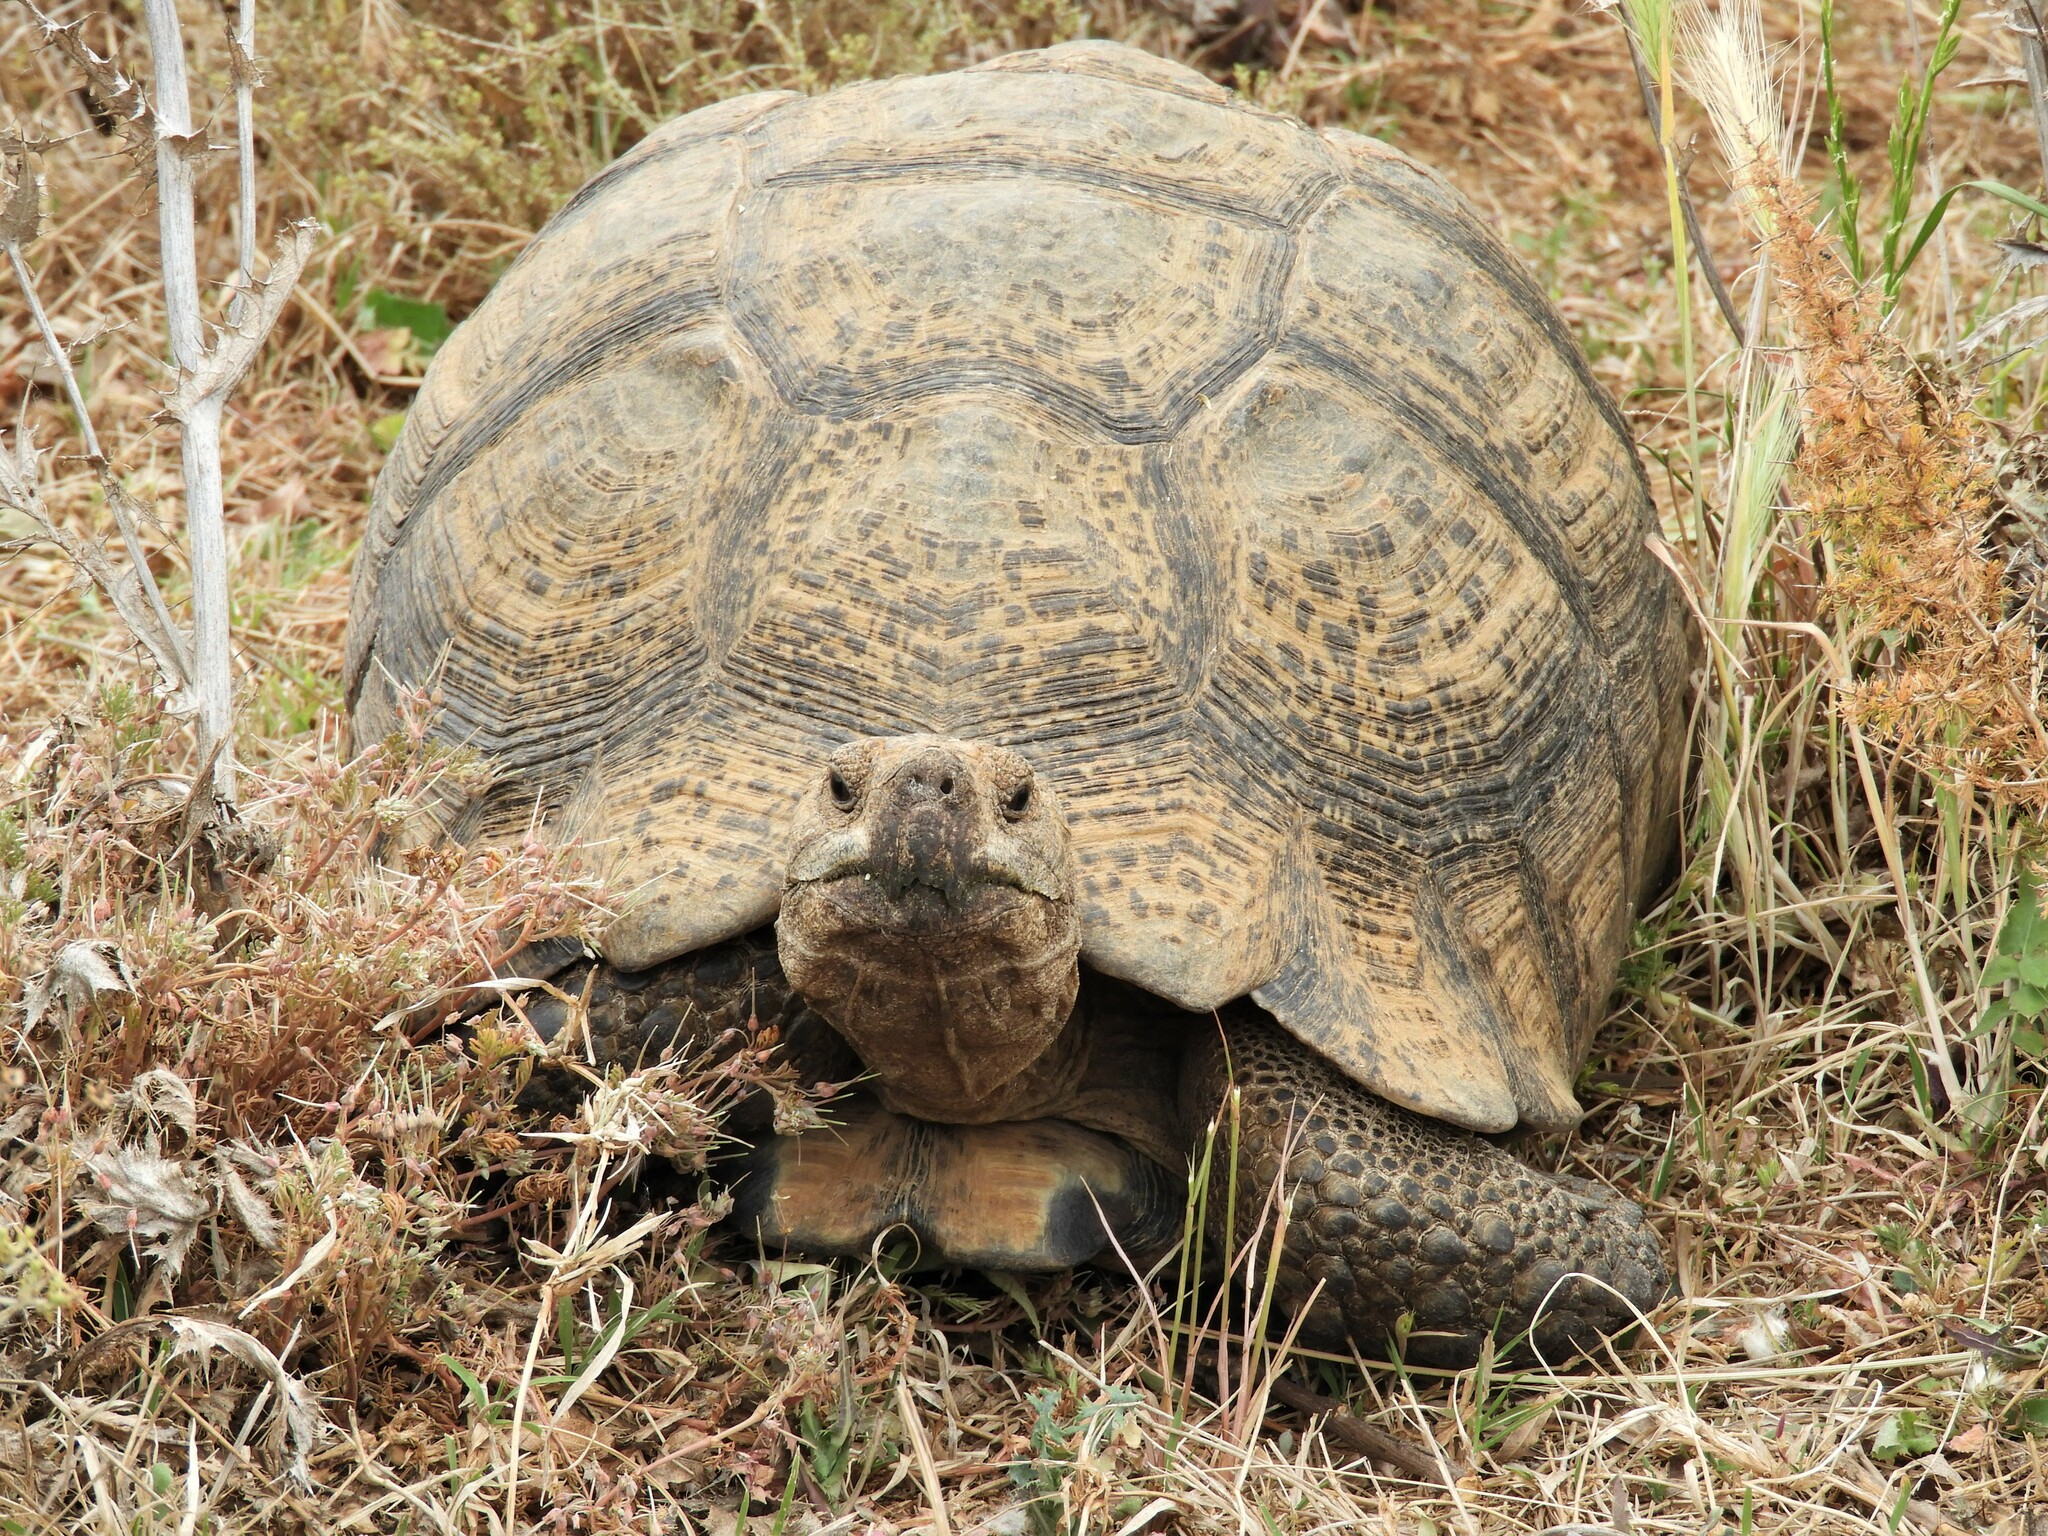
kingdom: Animalia
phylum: Chordata
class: Testudines
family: Testudinidae
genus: Stigmochelys
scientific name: Stigmochelys pardalis
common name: Leopard tortoise
